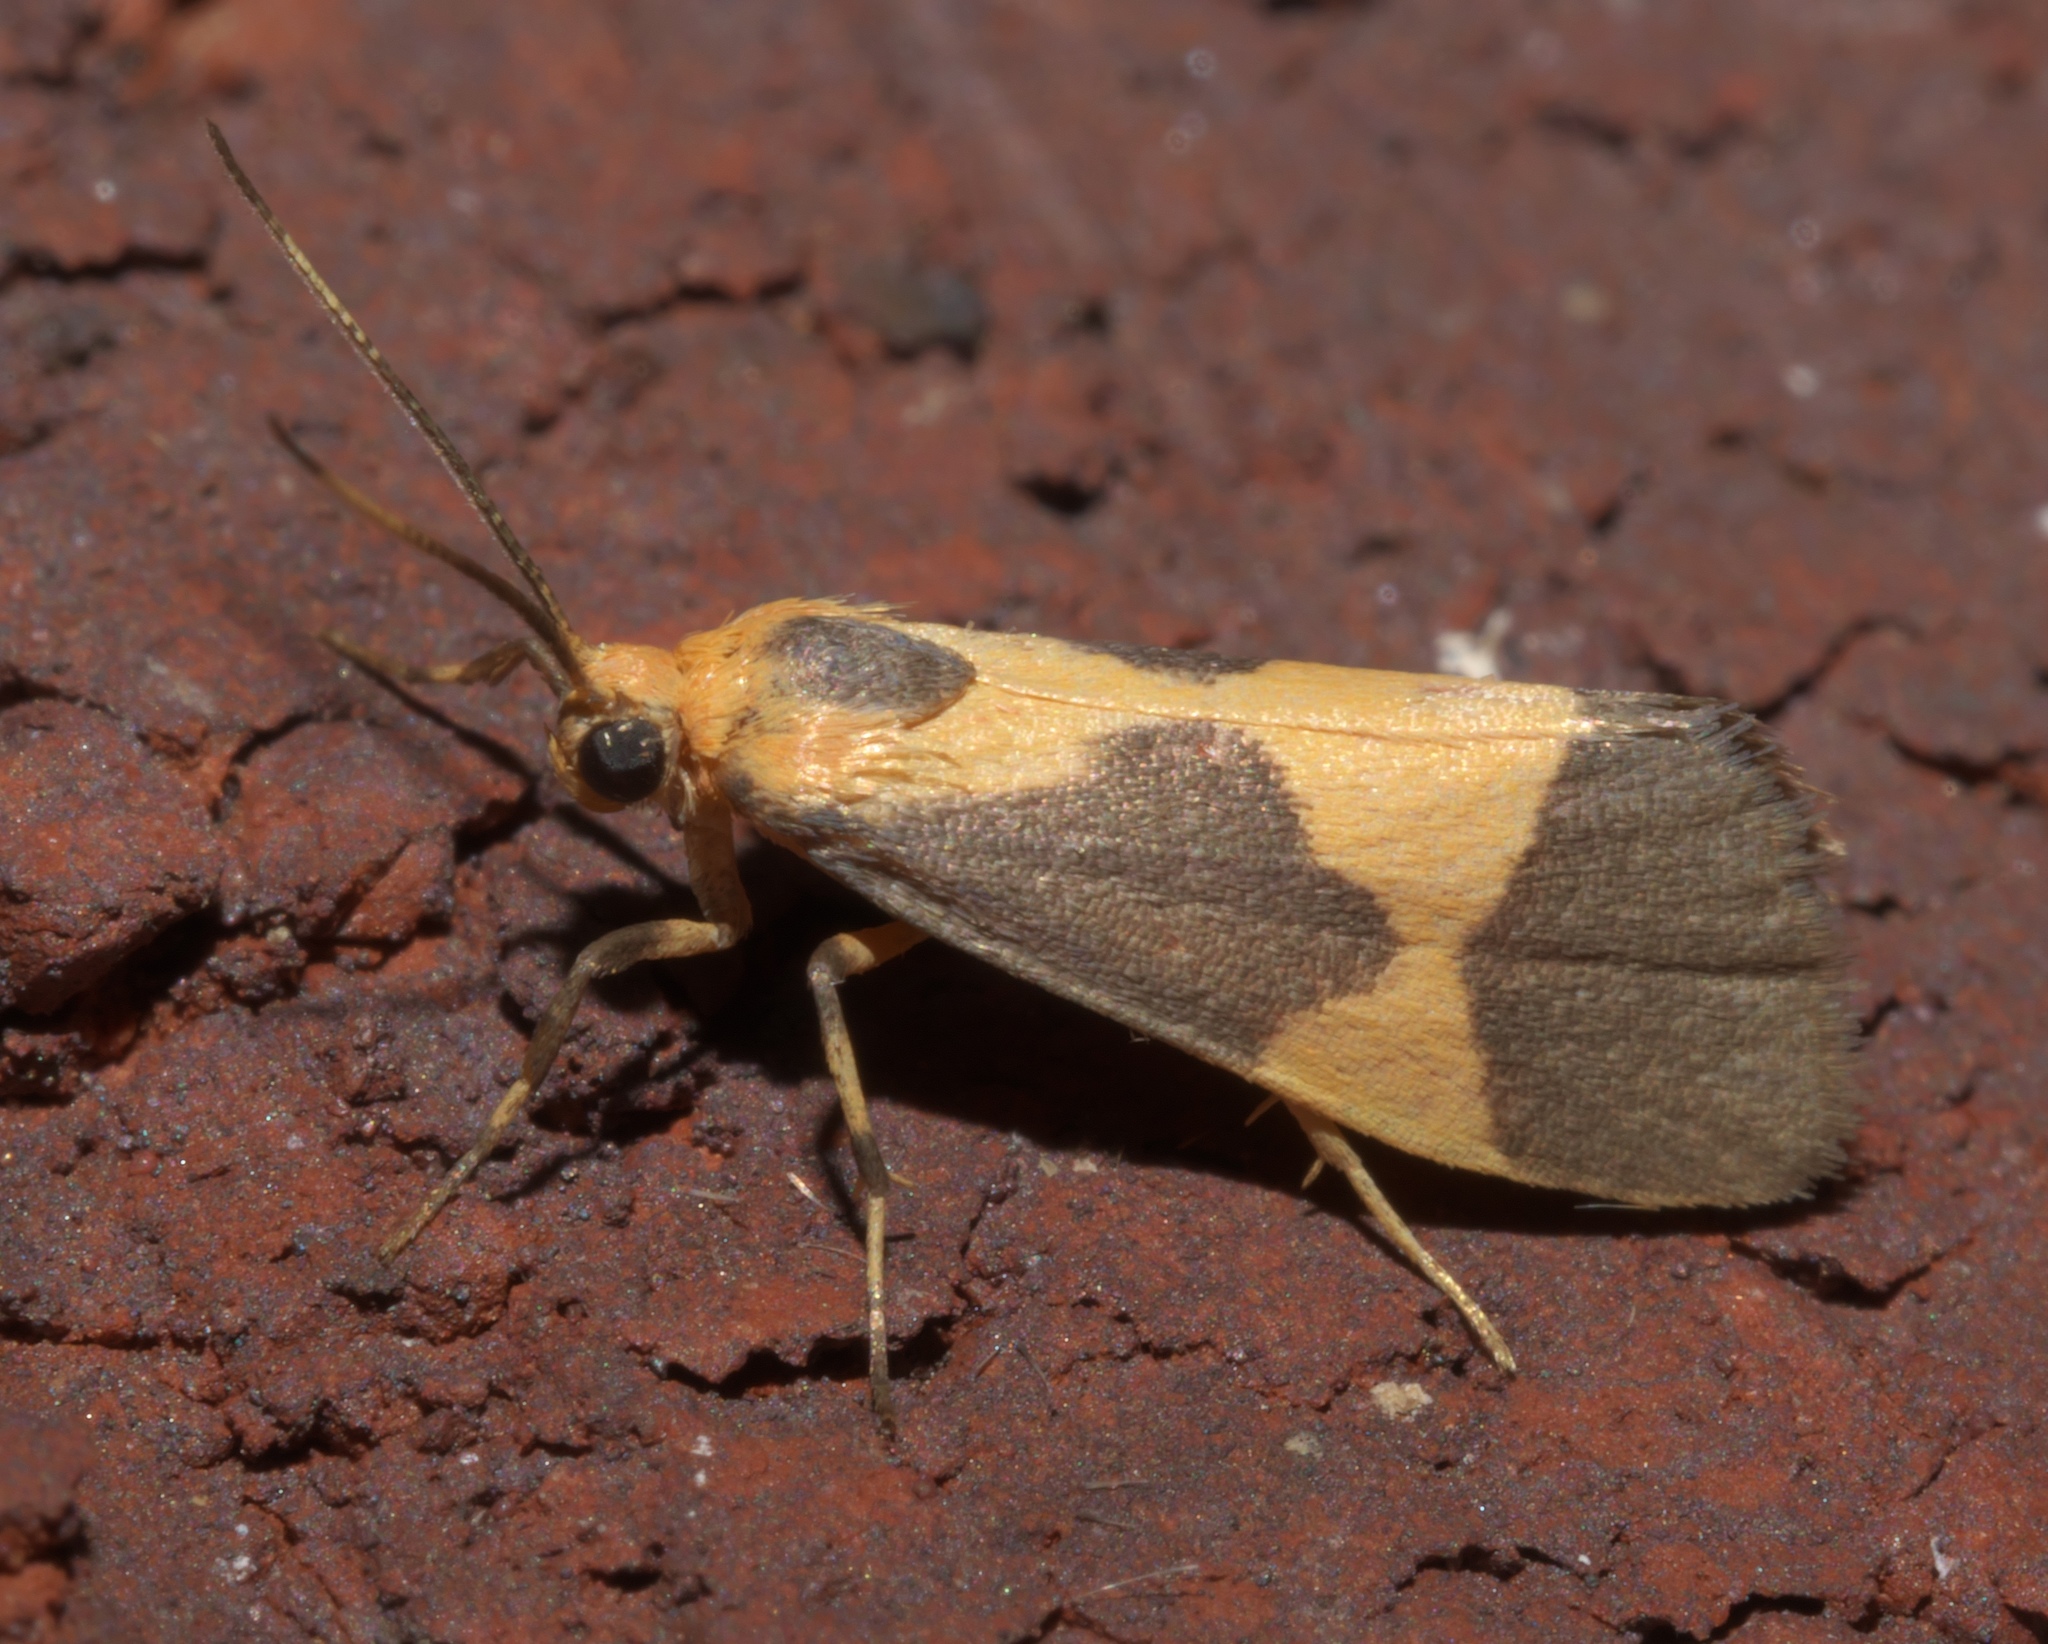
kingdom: Animalia
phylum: Arthropoda
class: Insecta
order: Lepidoptera
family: Erebidae
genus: Cisthene
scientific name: Cisthene unifascia
